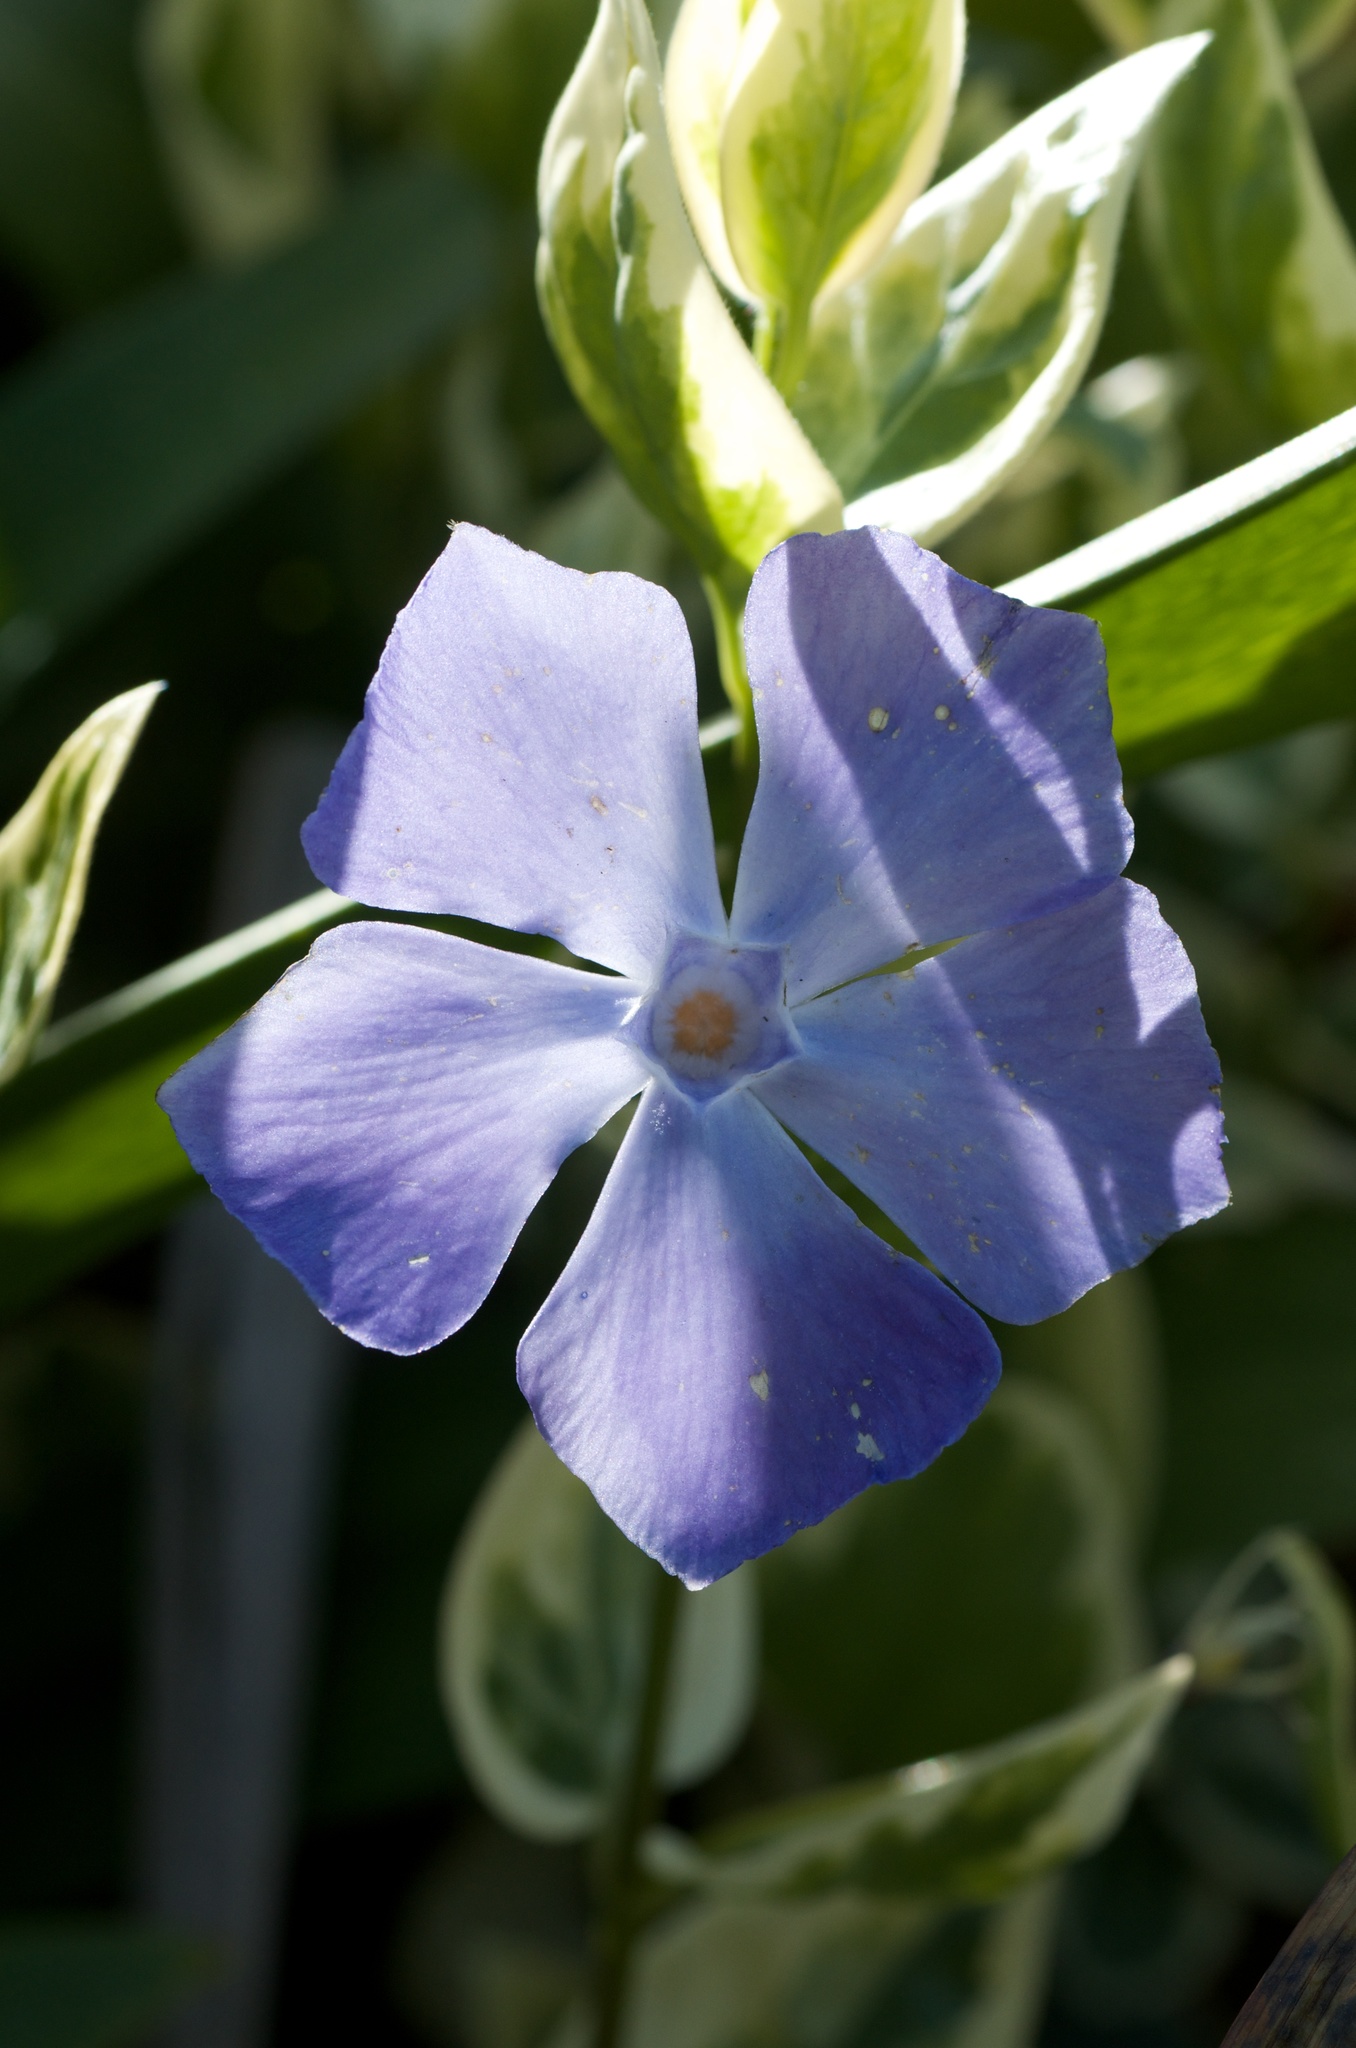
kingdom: Plantae
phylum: Tracheophyta
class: Magnoliopsida
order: Gentianales
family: Apocynaceae
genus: Vinca
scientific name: Vinca major
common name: Greater periwinkle
